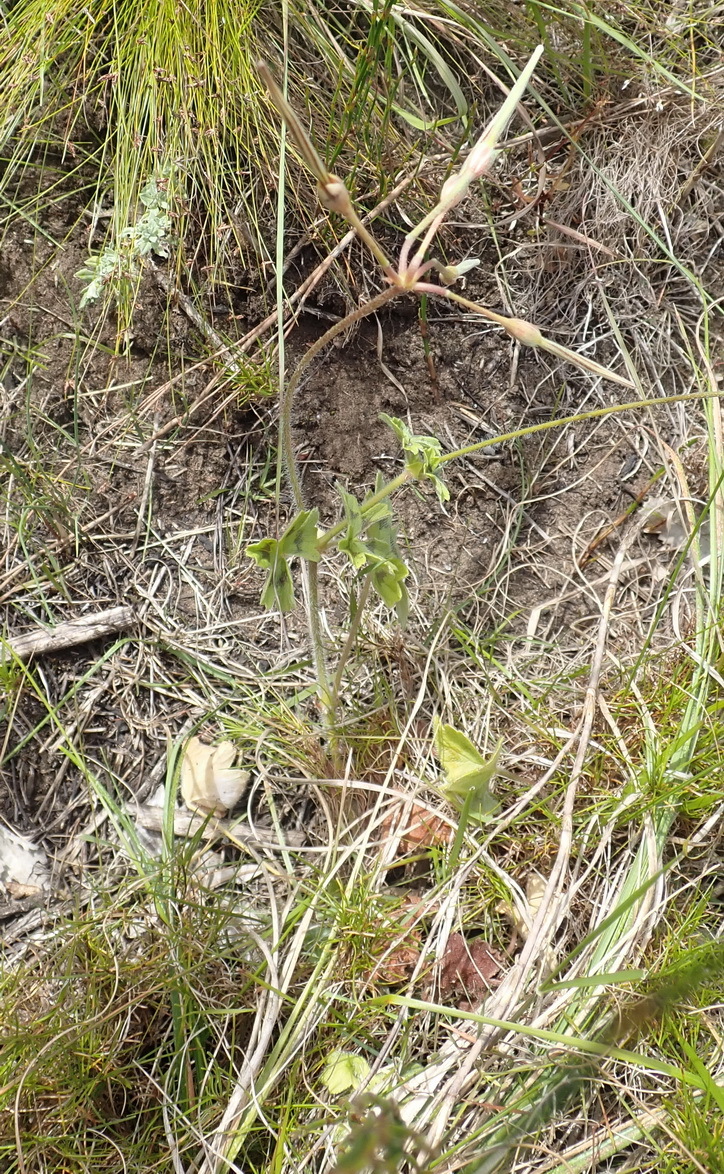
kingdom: Plantae
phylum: Tracheophyta
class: Magnoliopsida
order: Geraniales
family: Geraniaceae
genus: Pelargonium
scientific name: Pelargonium alchemilloides
